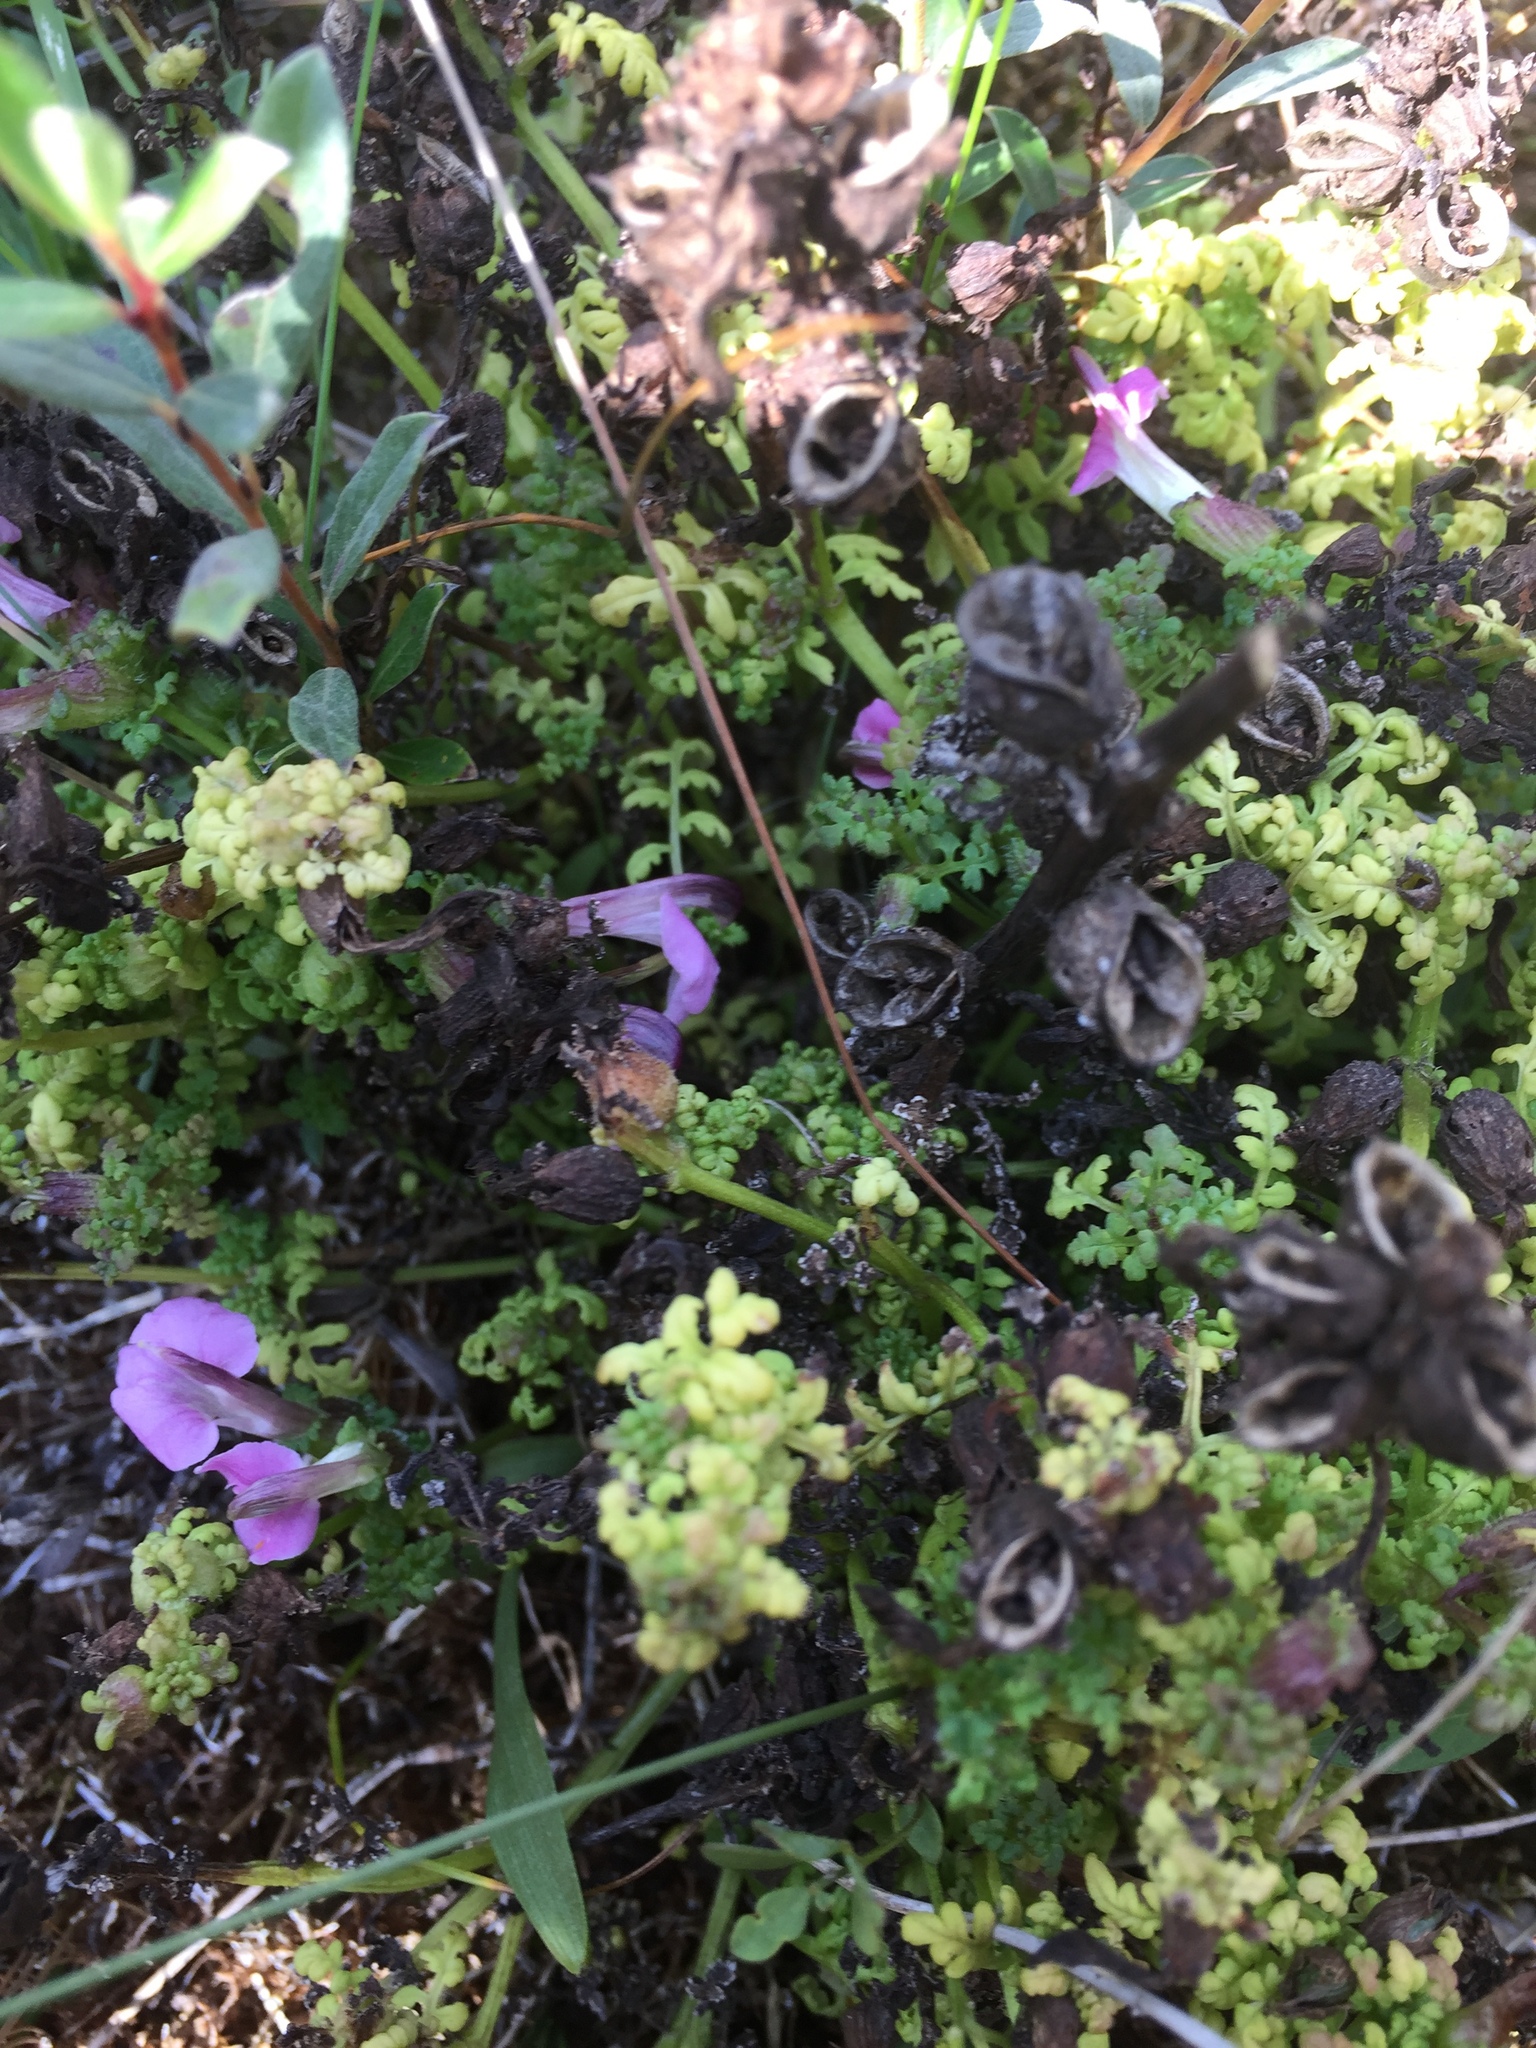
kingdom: Plantae
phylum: Tracheophyta
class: Magnoliopsida
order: Lamiales
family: Orobanchaceae
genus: Pedicularis
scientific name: Pedicularis sylvatica
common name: Lousewort
